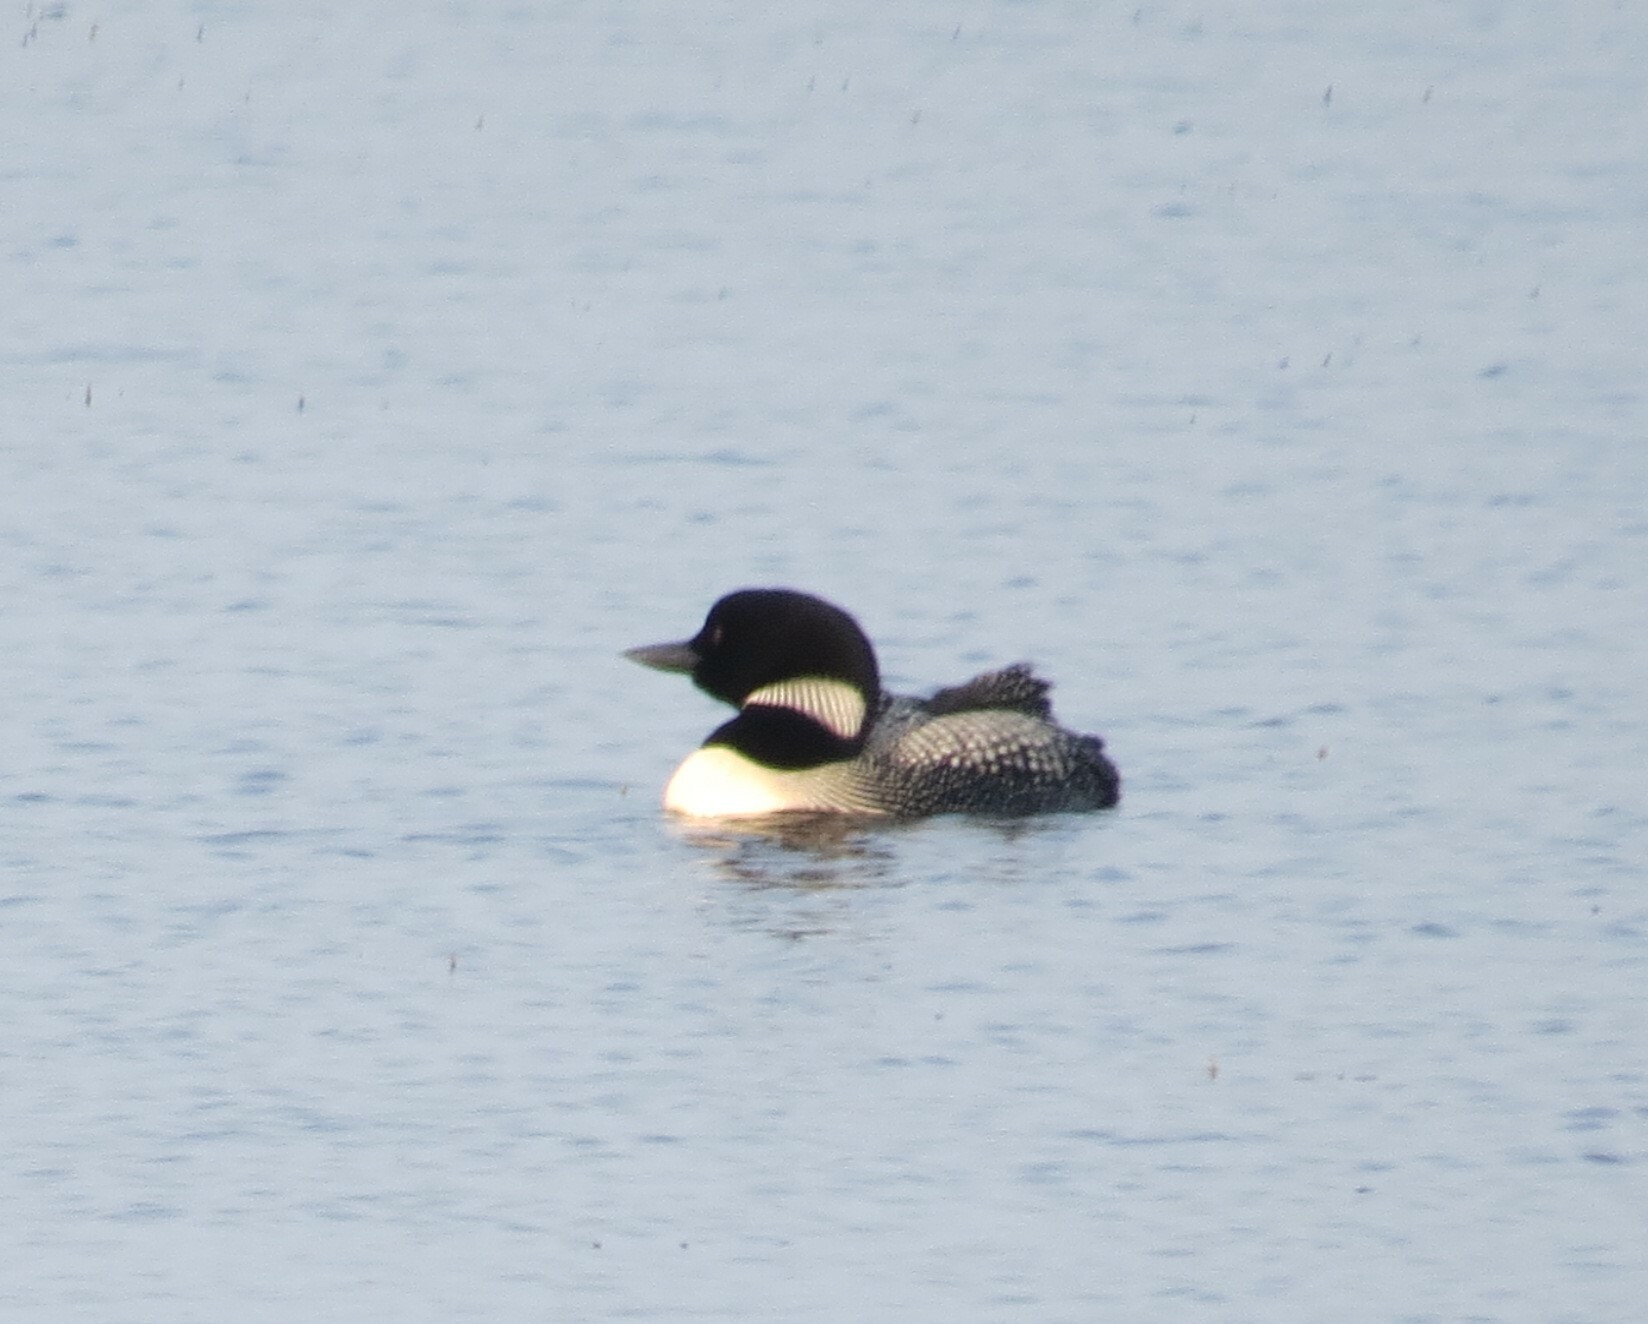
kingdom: Animalia
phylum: Chordata
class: Aves
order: Gaviiformes
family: Gaviidae
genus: Gavia
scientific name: Gavia immer
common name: Common loon
